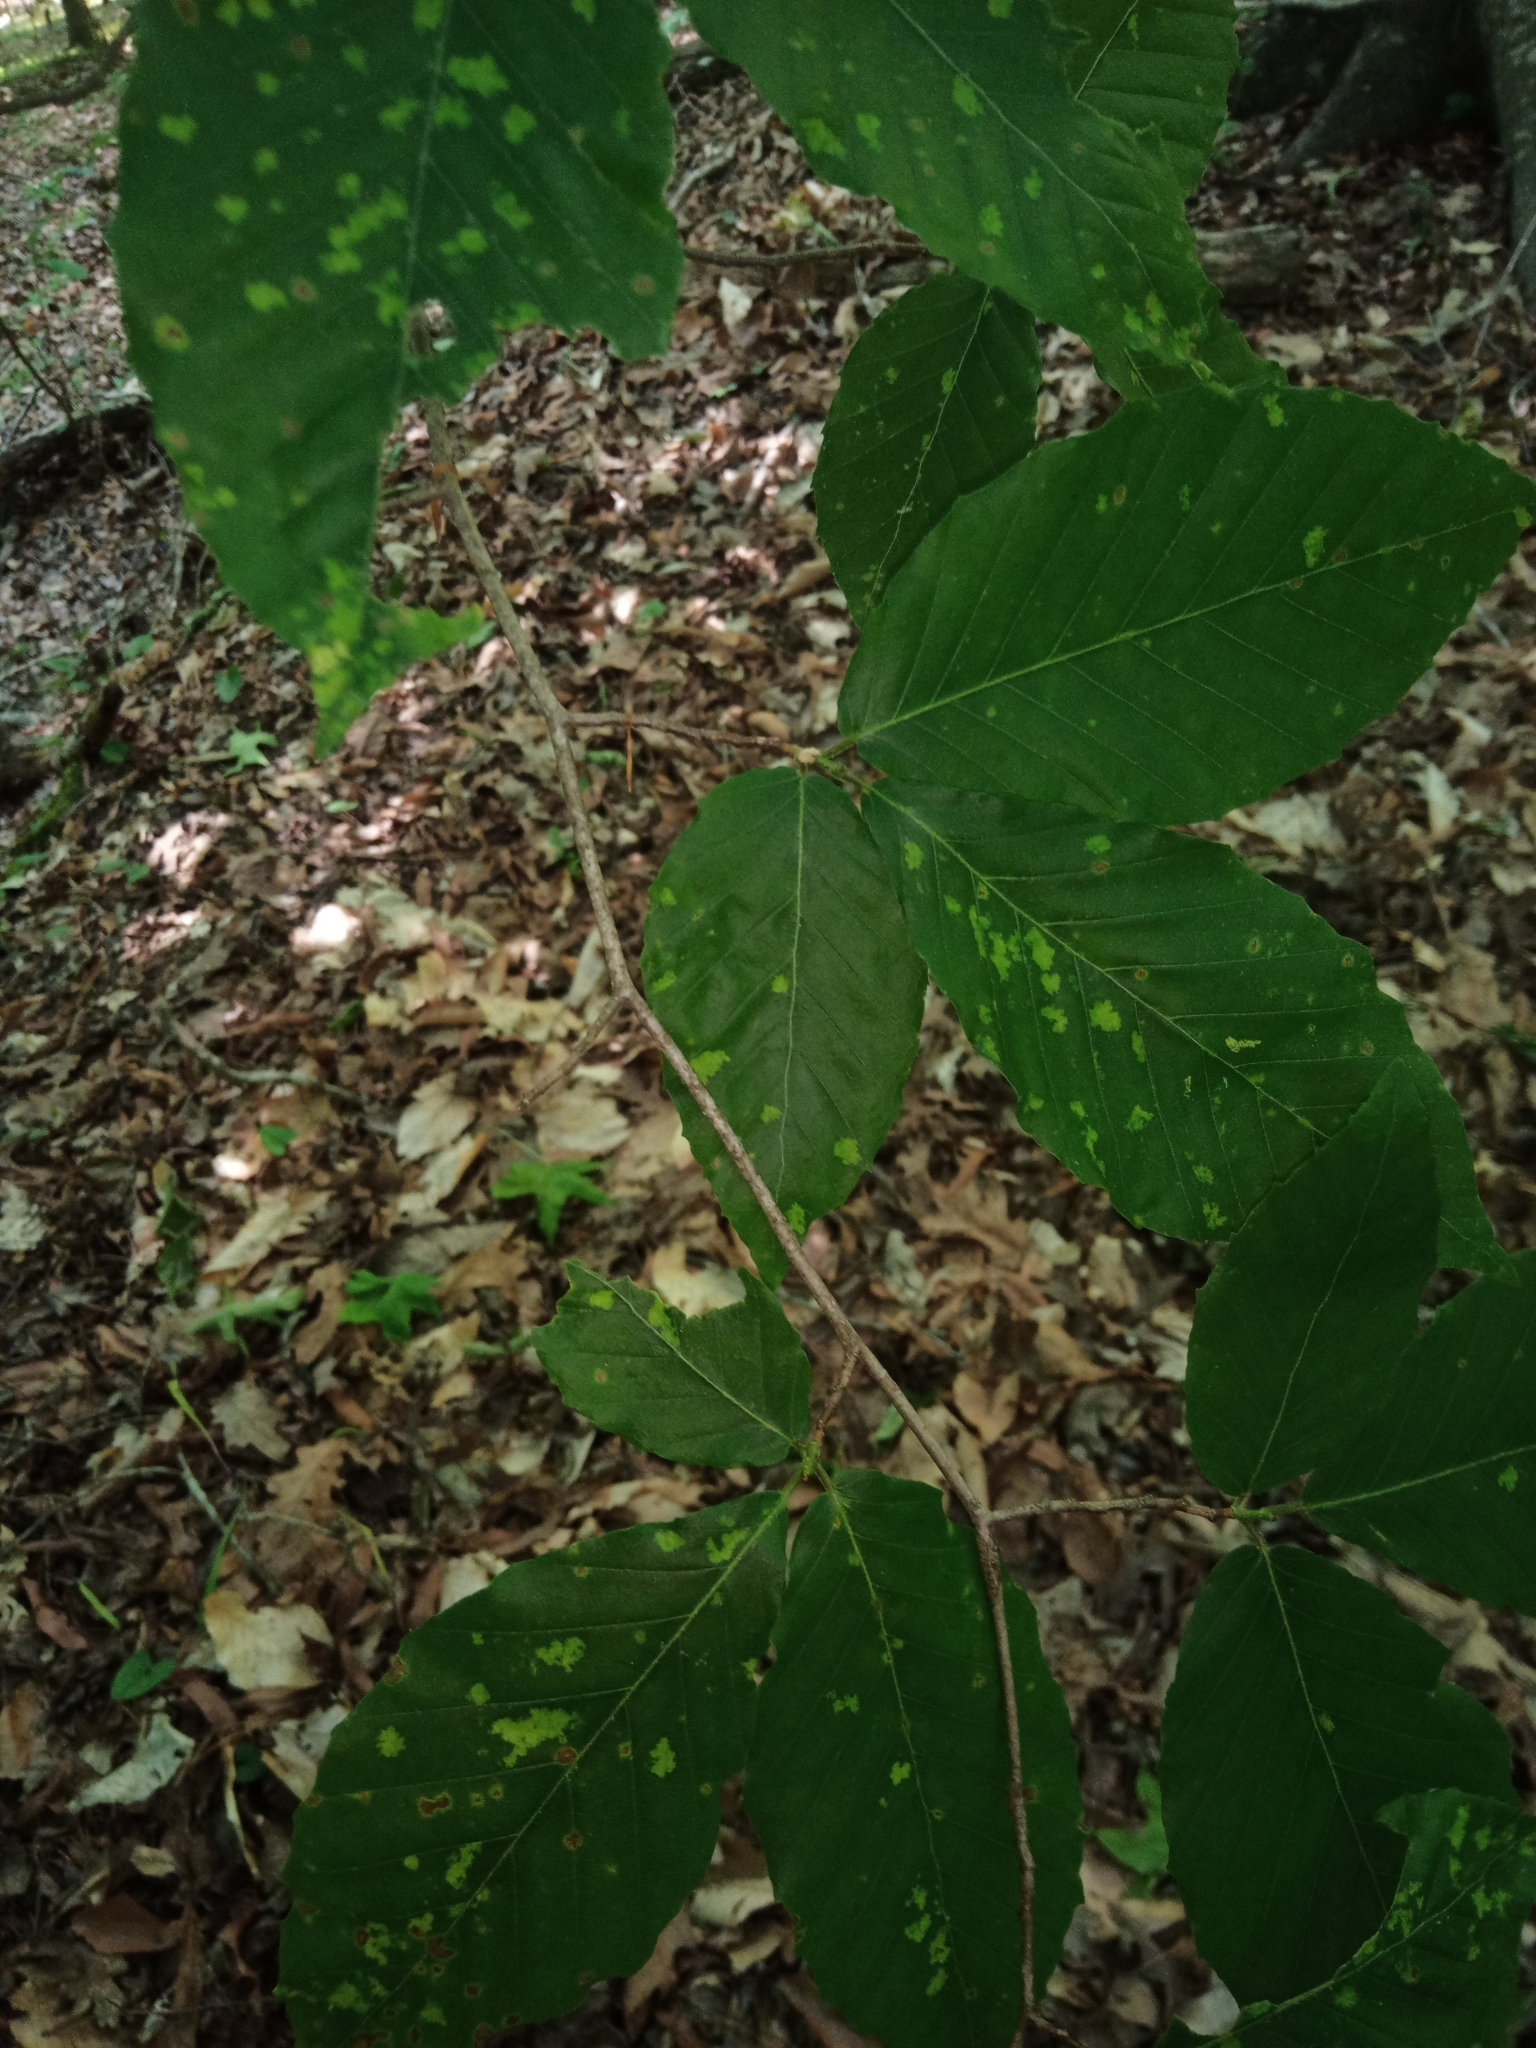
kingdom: Plantae
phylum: Tracheophyta
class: Magnoliopsida
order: Fagales
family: Fagaceae
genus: Fagus
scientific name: Fagus grandifolia
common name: American beech
